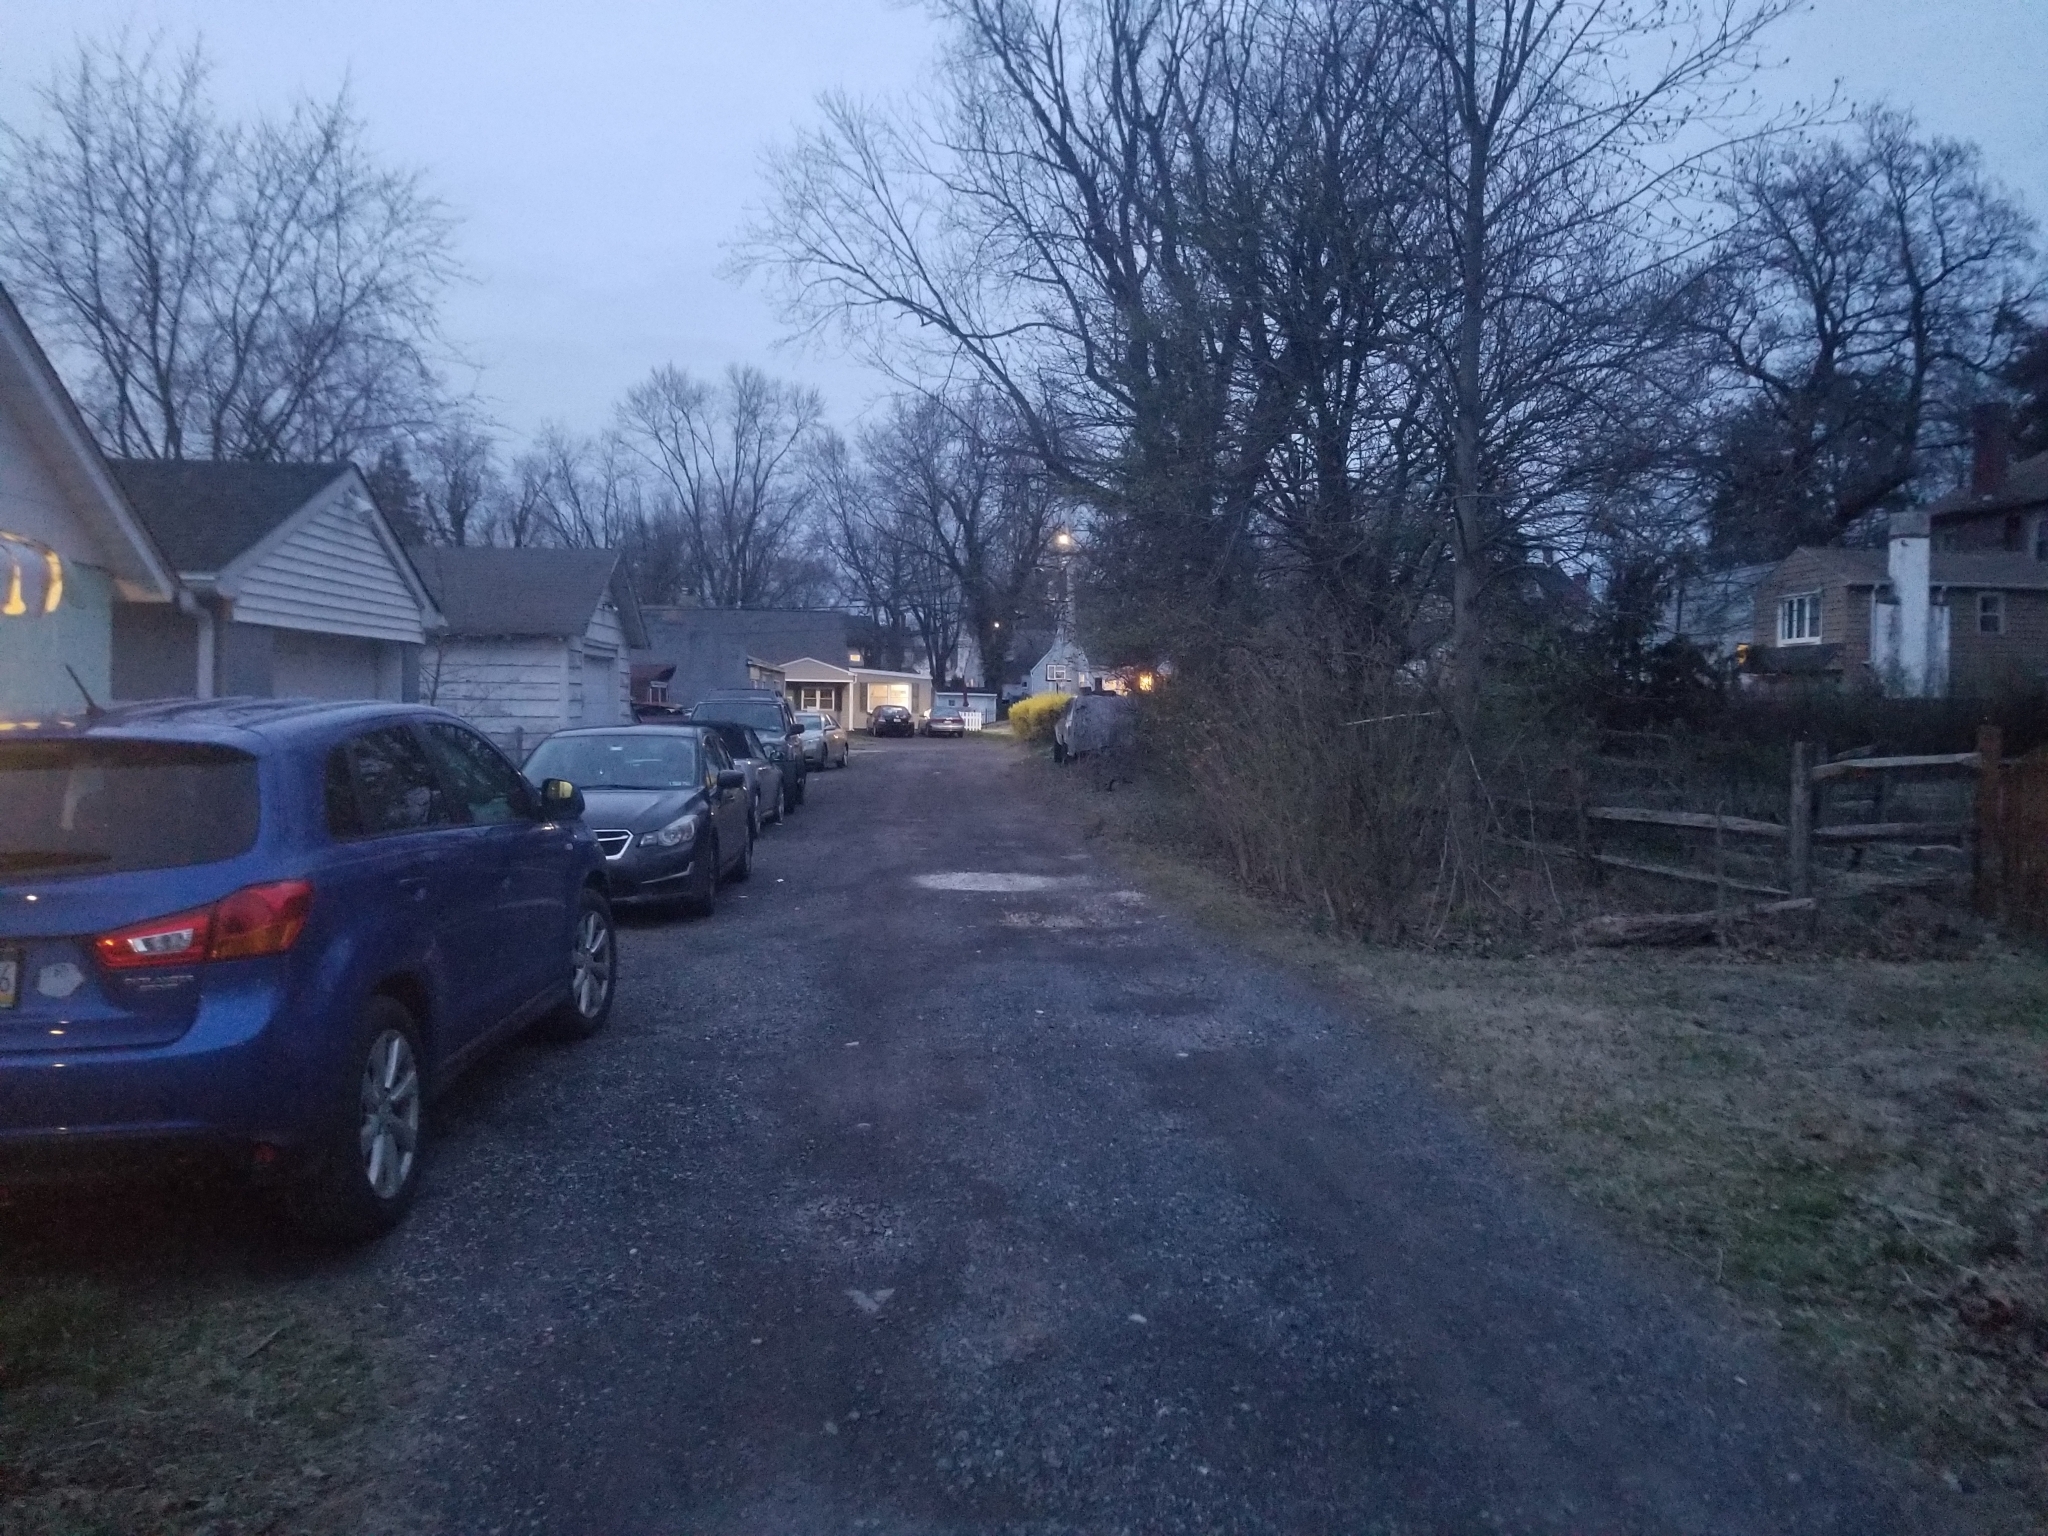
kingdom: Animalia
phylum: Chordata
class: Mammalia
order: Lagomorpha
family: Leporidae
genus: Sylvilagus
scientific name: Sylvilagus floridanus
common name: Eastern cottontail
